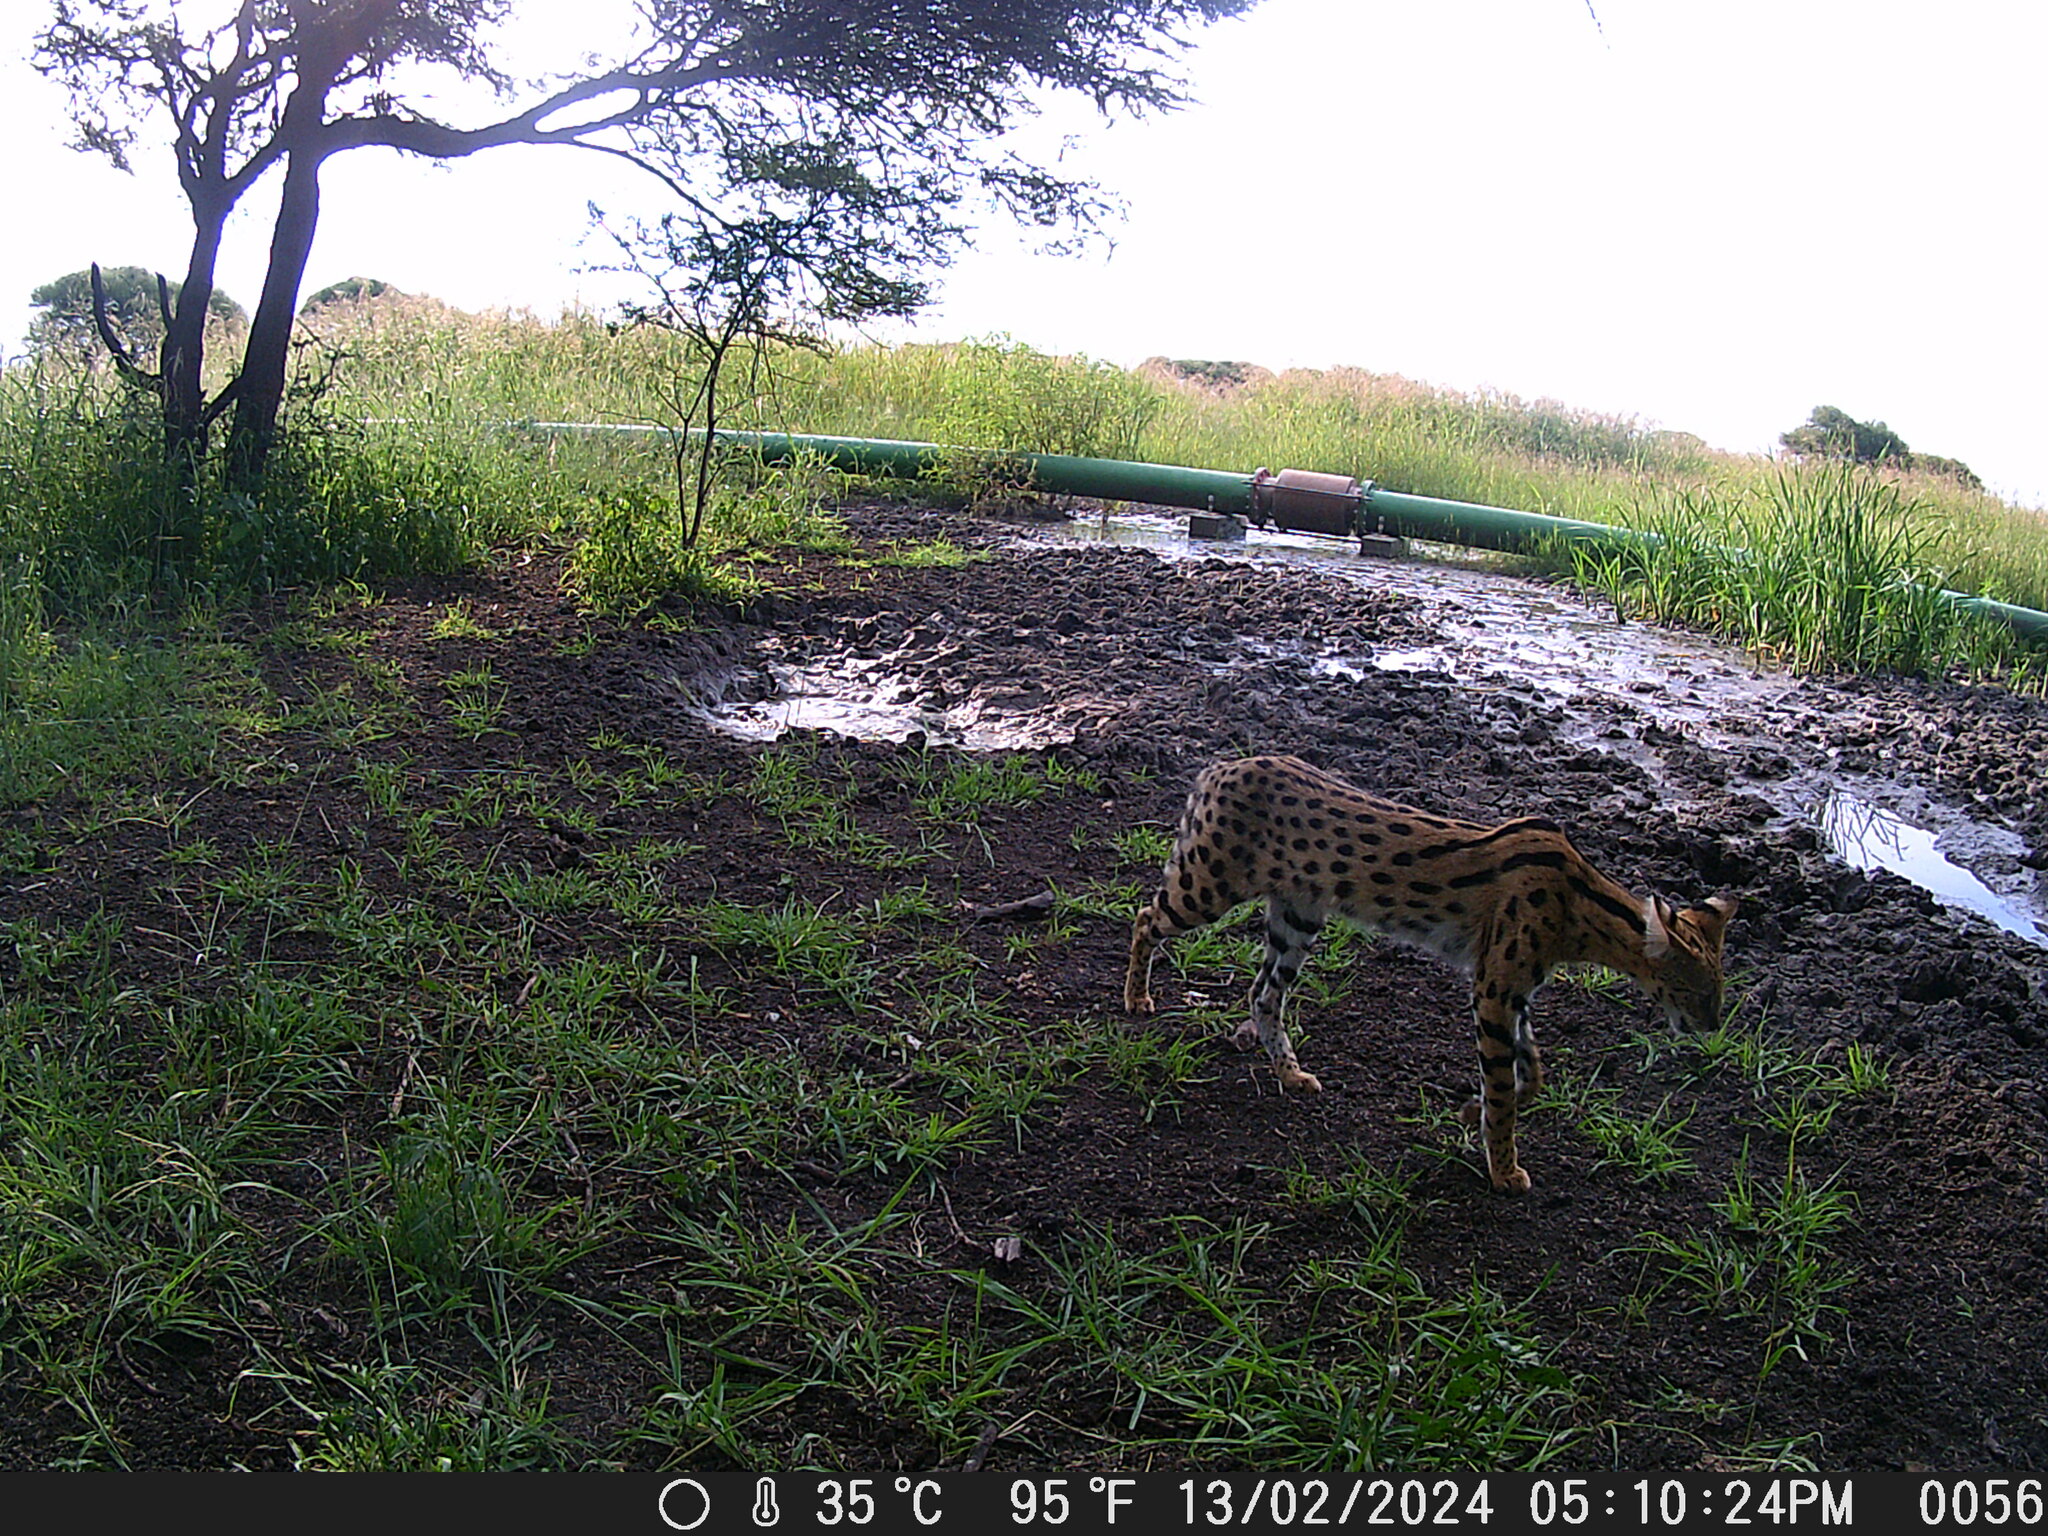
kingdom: Animalia
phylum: Chordata
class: Mammalia
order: Carnivora
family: Felidae
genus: Leptailurus
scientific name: Leptailurus serval
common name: Serval
